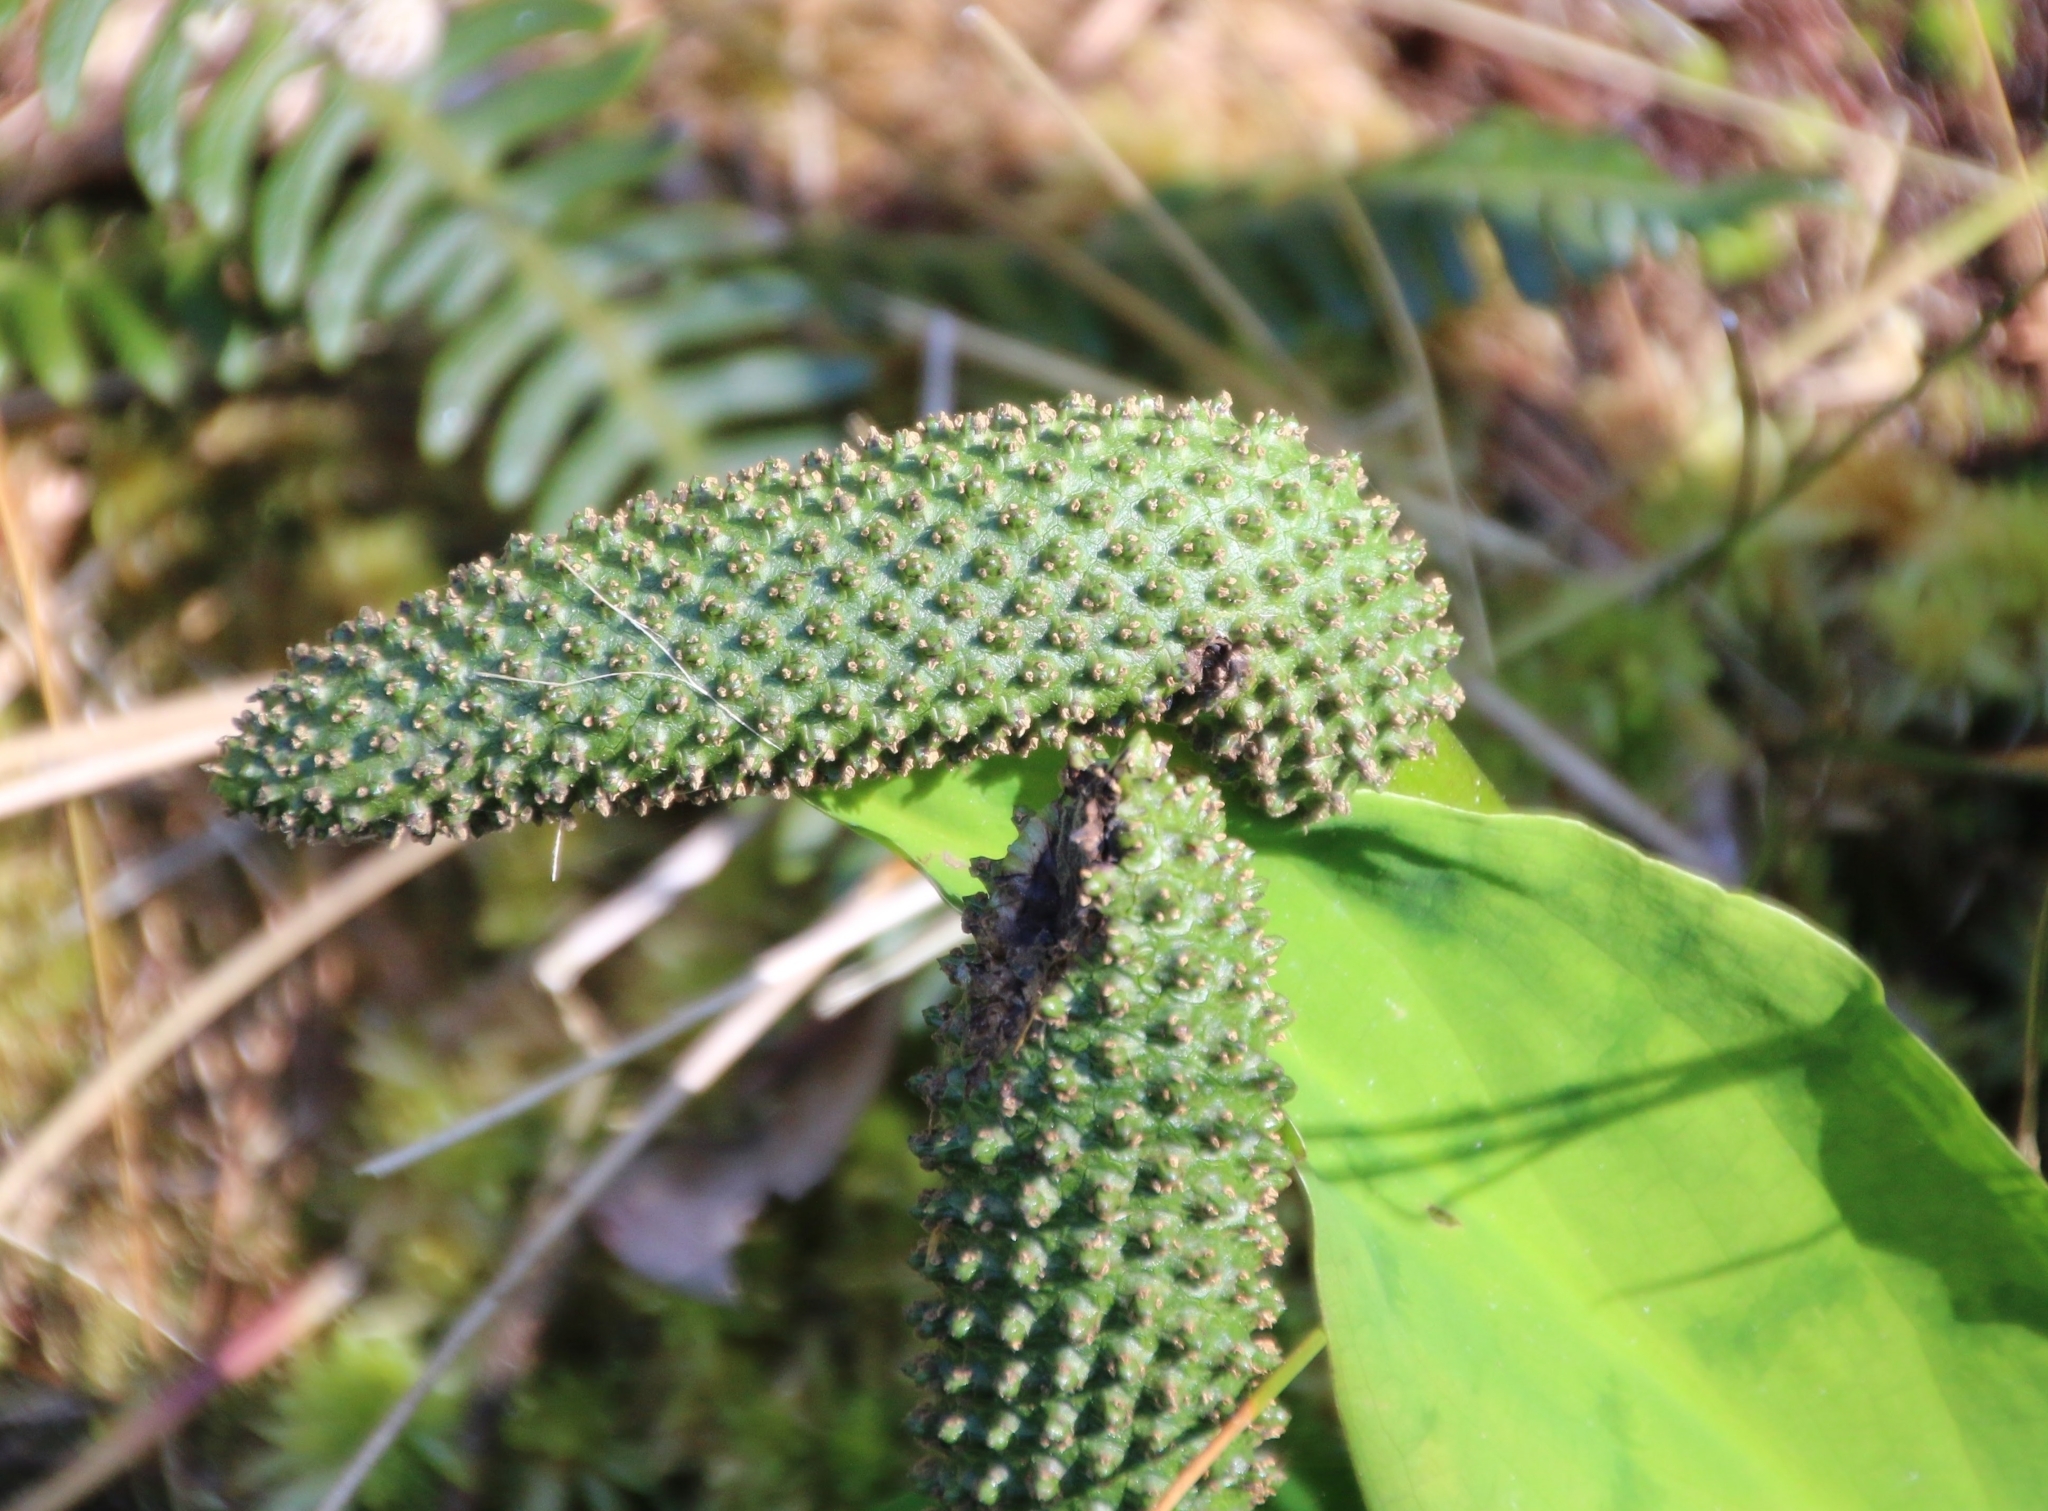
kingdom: Plantae
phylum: Tracheophyta
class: Liliopsida
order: Alismatales
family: Araceae
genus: Lysichiton
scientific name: Lysichiton americanus
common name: American skunk cabbage
